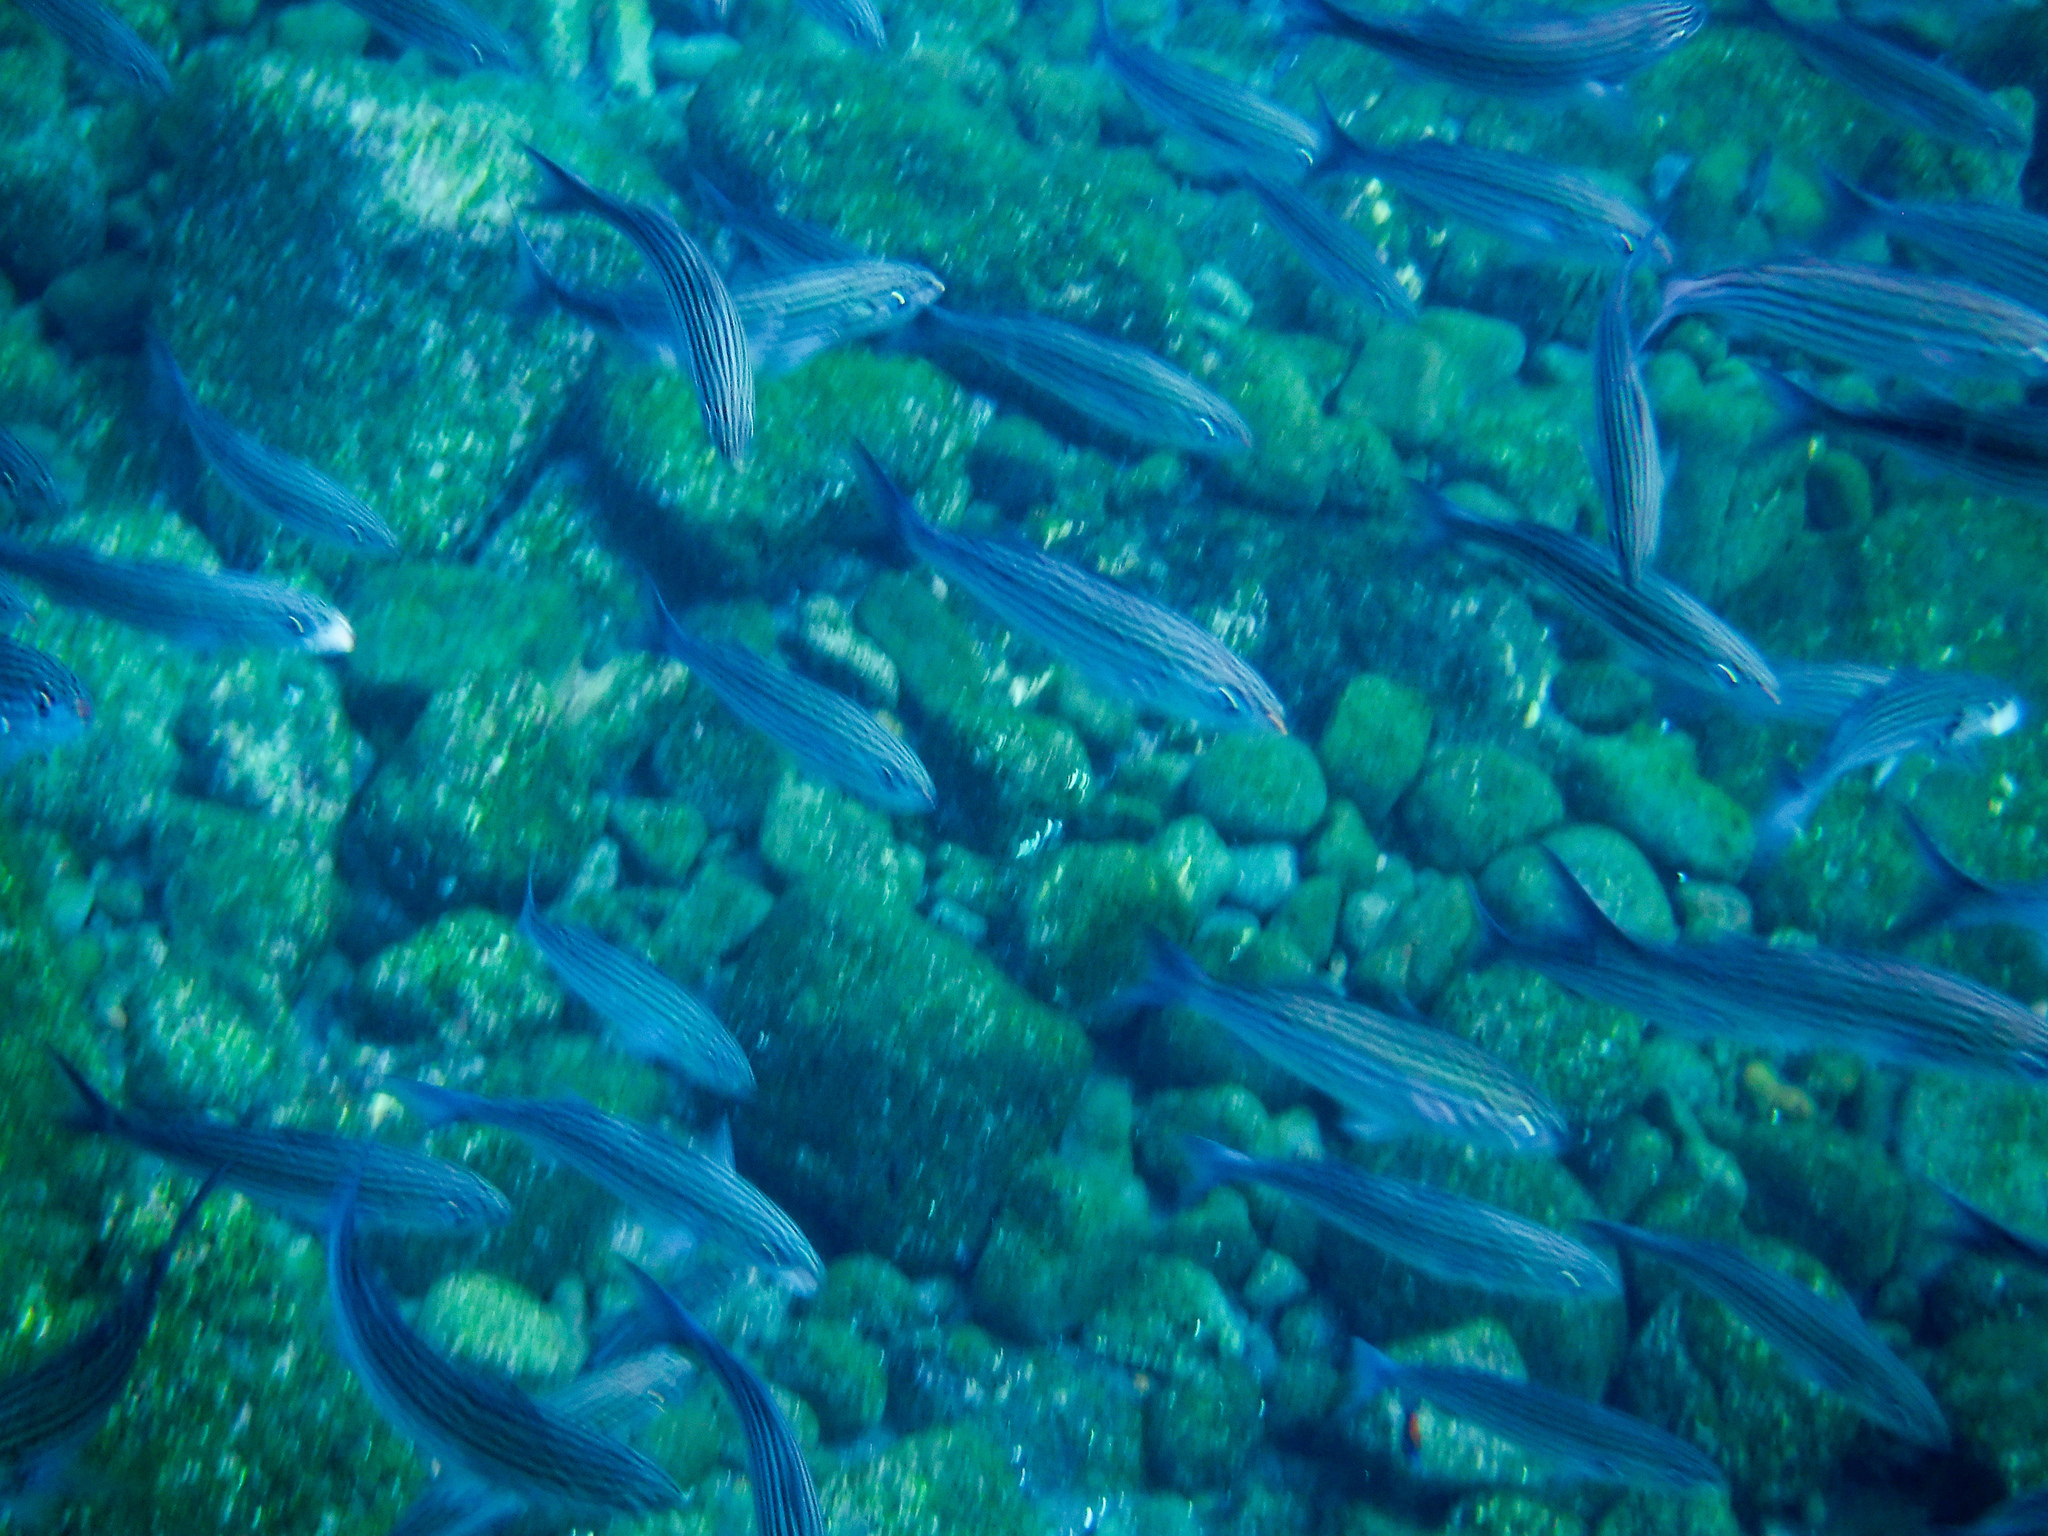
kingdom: Animalia
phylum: Chordata
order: Perciformes
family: Haemulidae
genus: Xenocys
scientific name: Xenocys jessiae
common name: Black-striped salema
